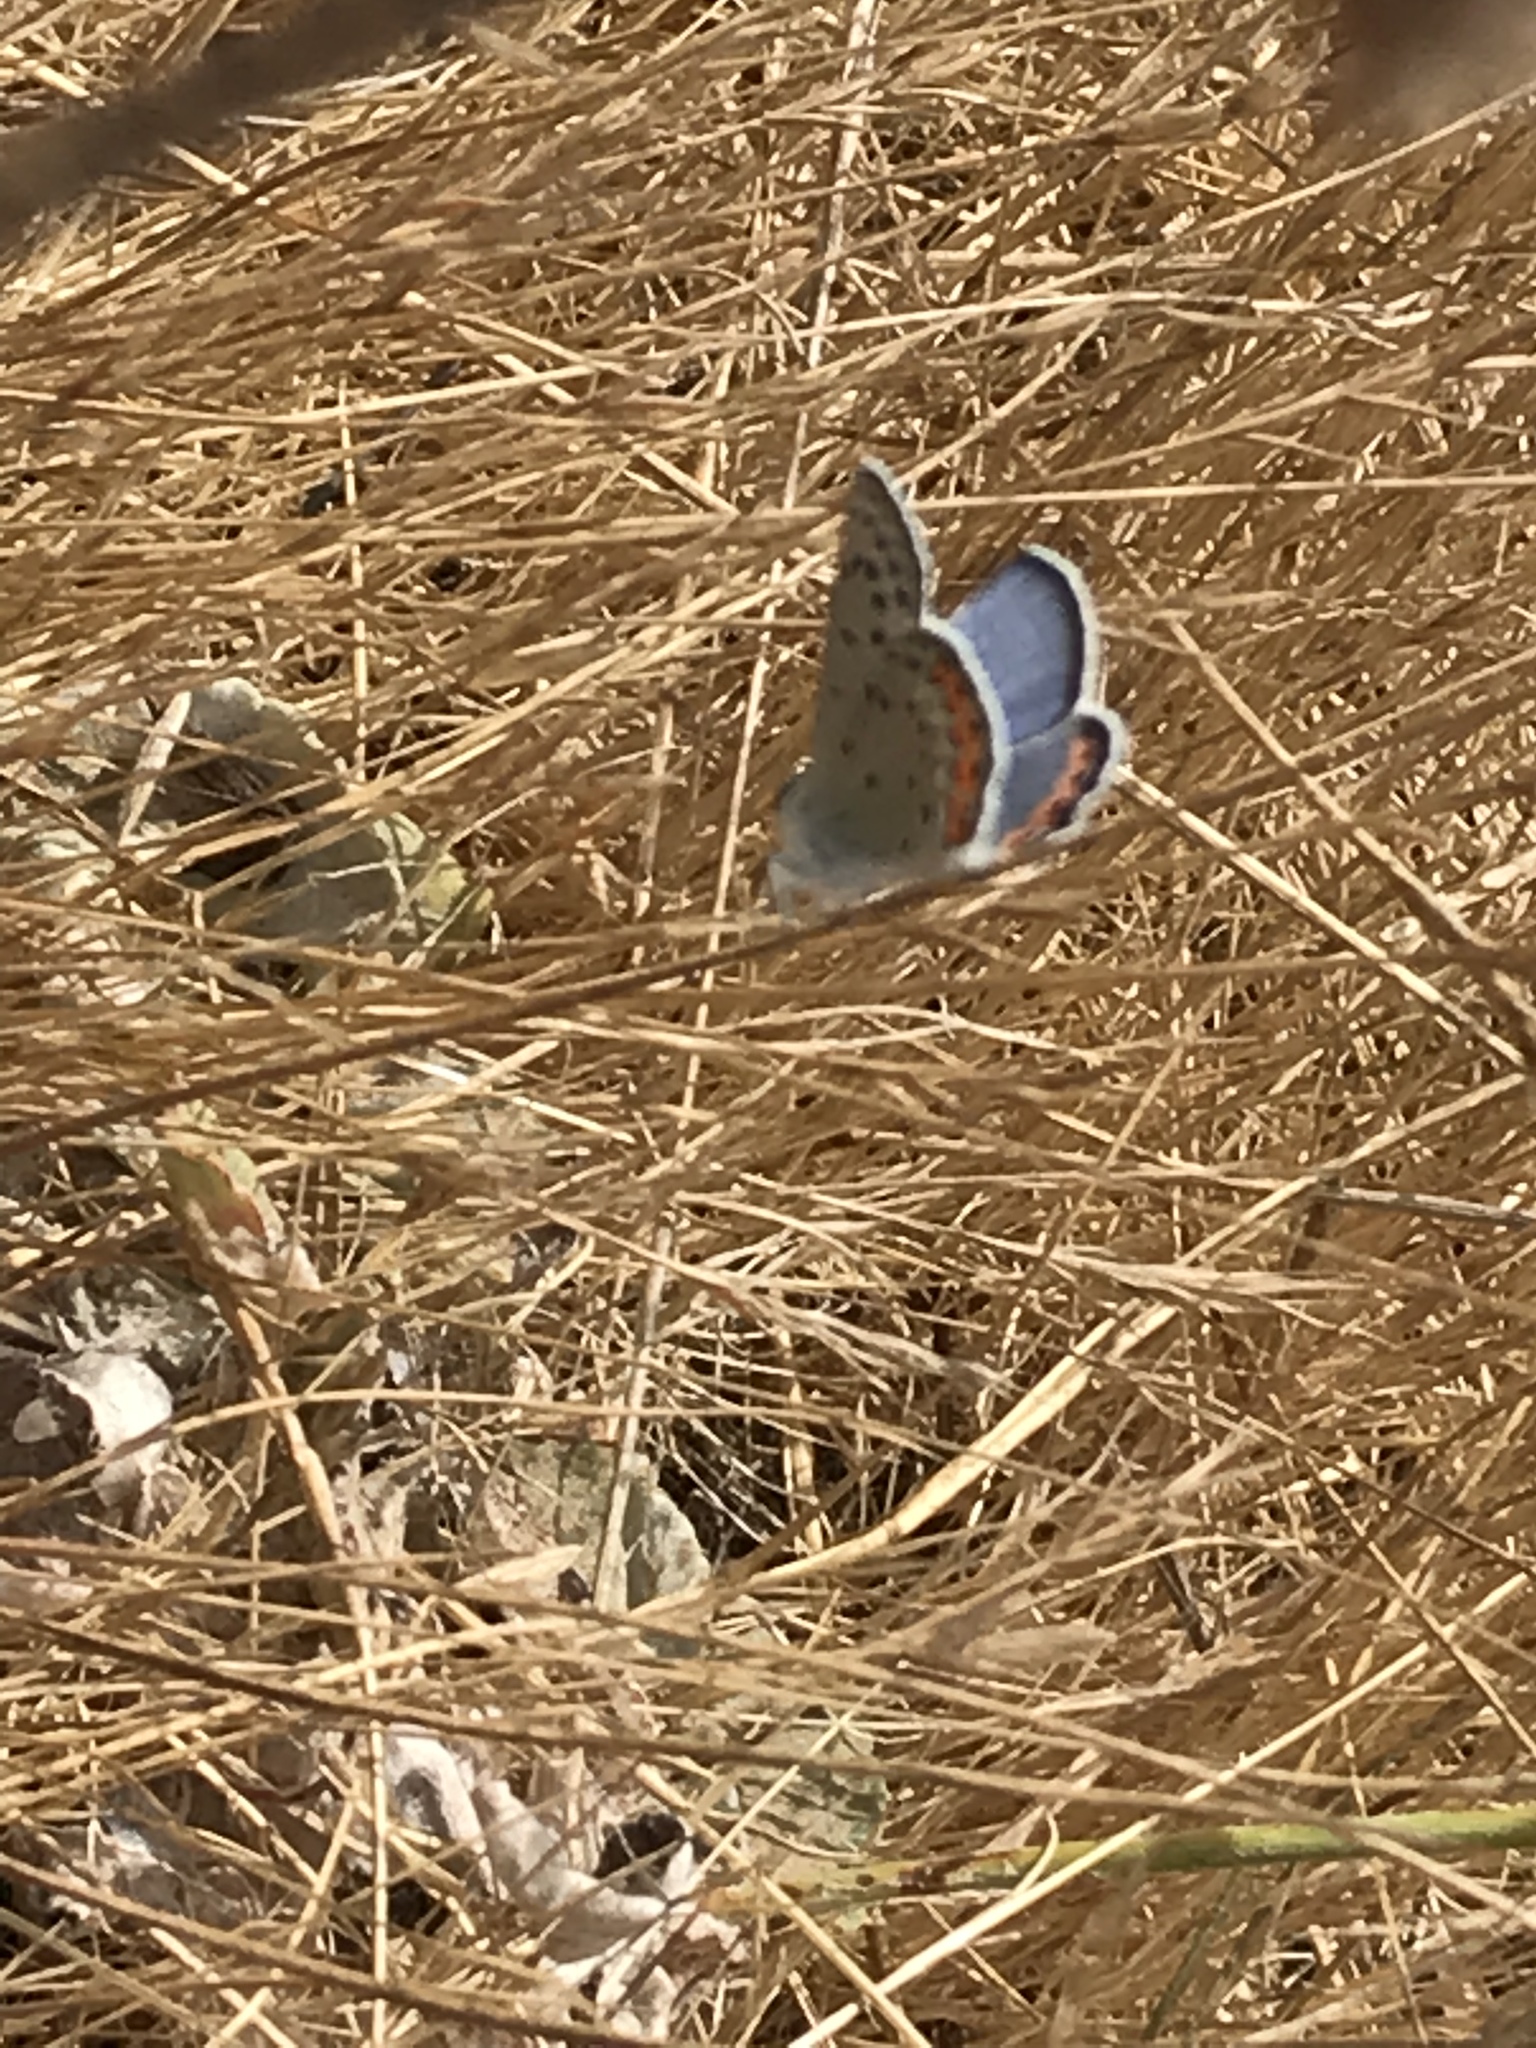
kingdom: Animalia
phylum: Arthropoda
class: Insecta
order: Lepidoptera
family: Lycaenidae
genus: Icaricia
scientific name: Icaricia acmon
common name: Acmon blue
